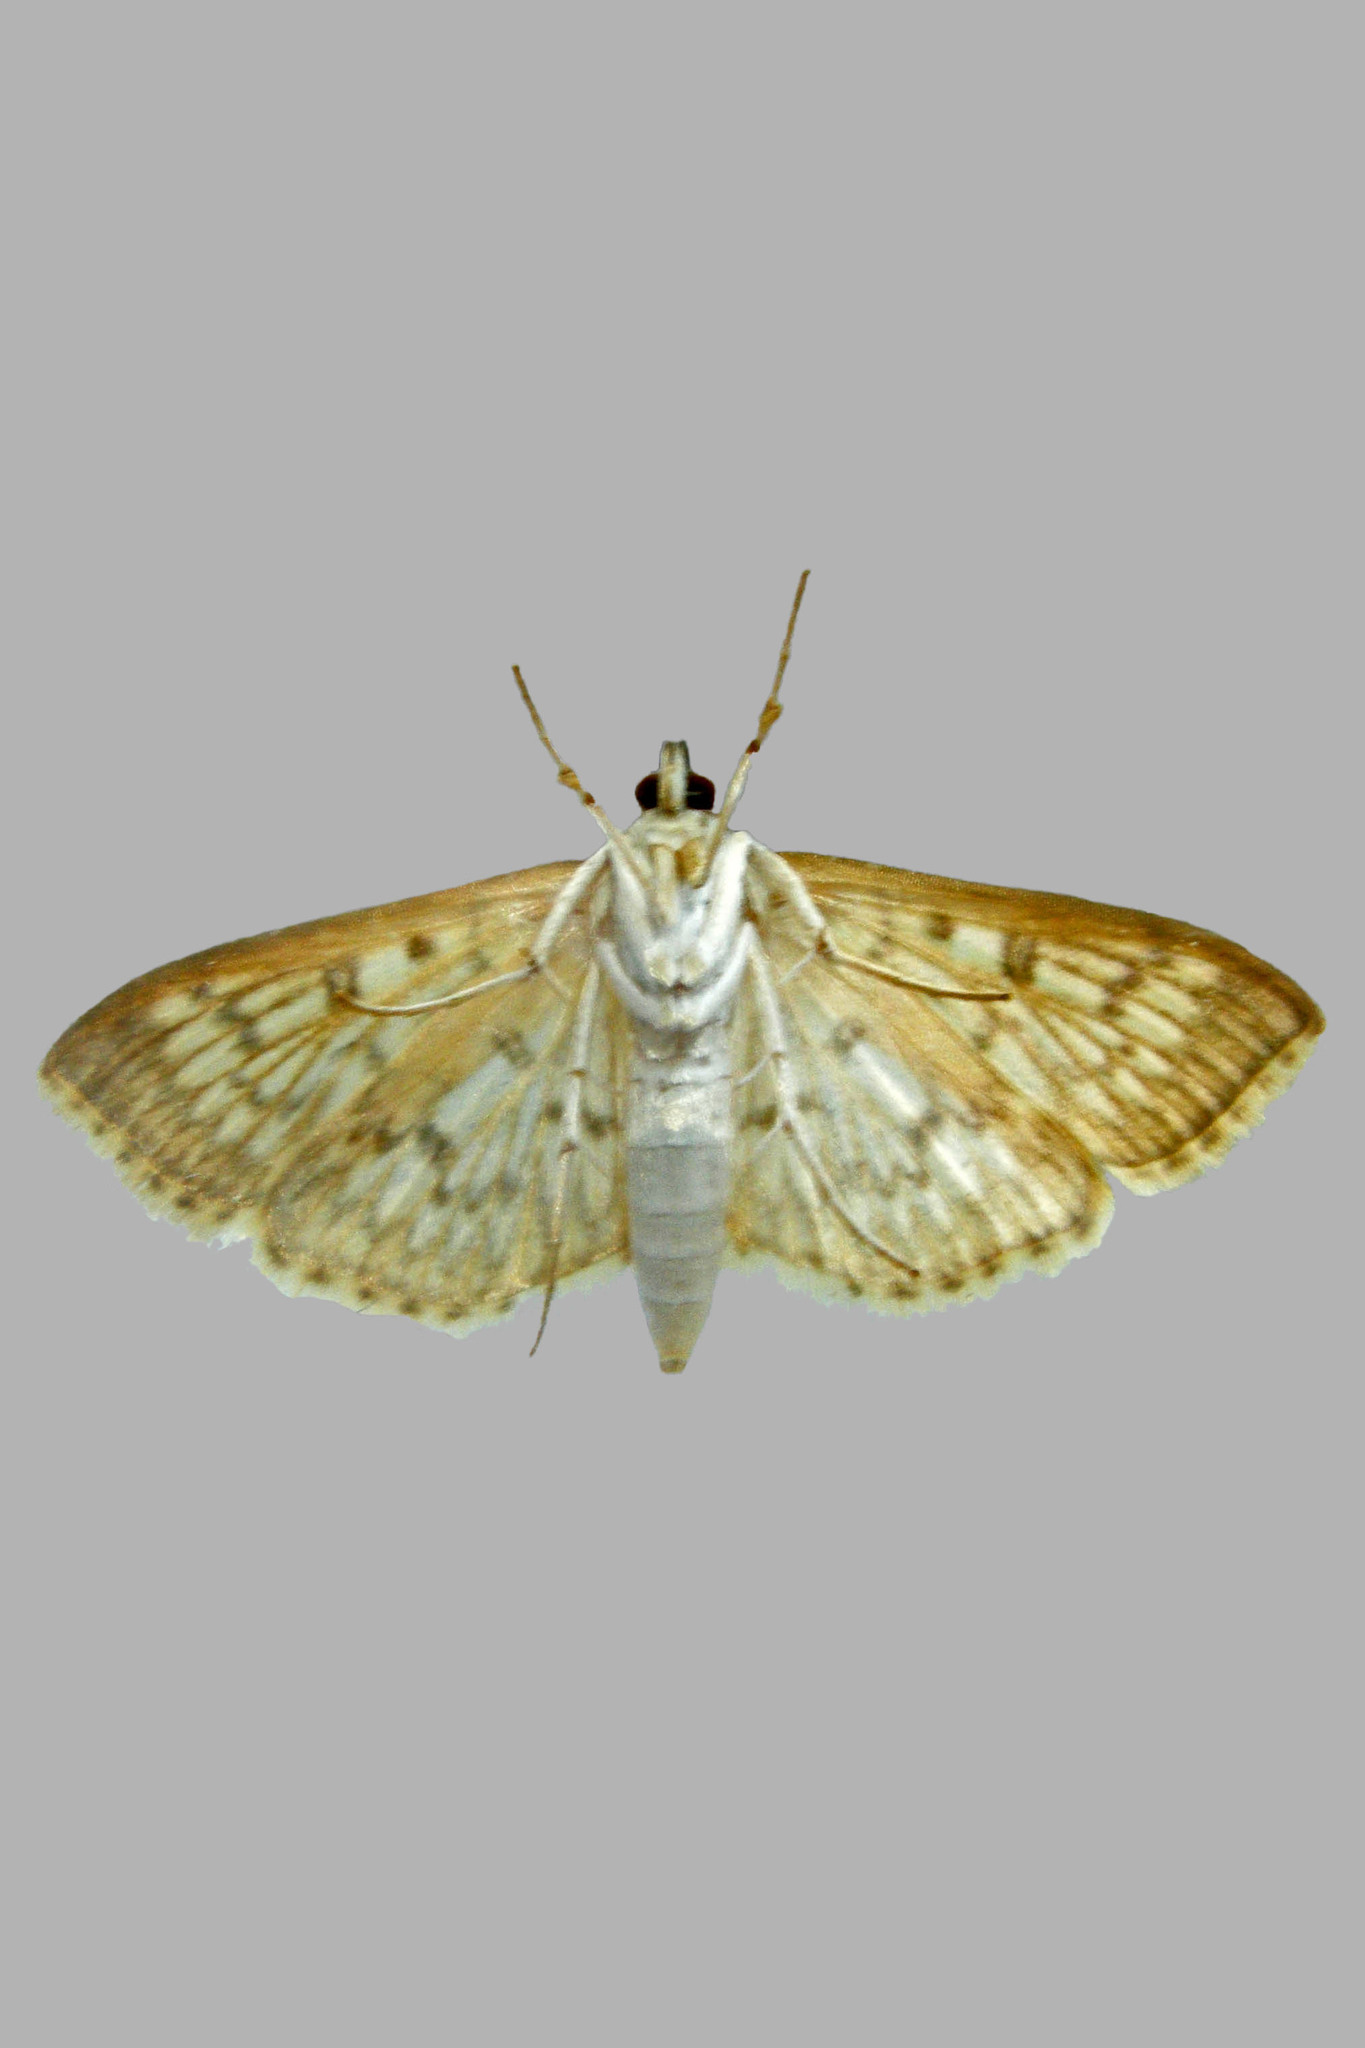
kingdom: Animalia
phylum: Arthropoda
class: Insecta
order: Lepidoptera
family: Crambidae
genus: Herpetogramma
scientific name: Herpetogramma pertextalis
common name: Bold-feathered grass moth
